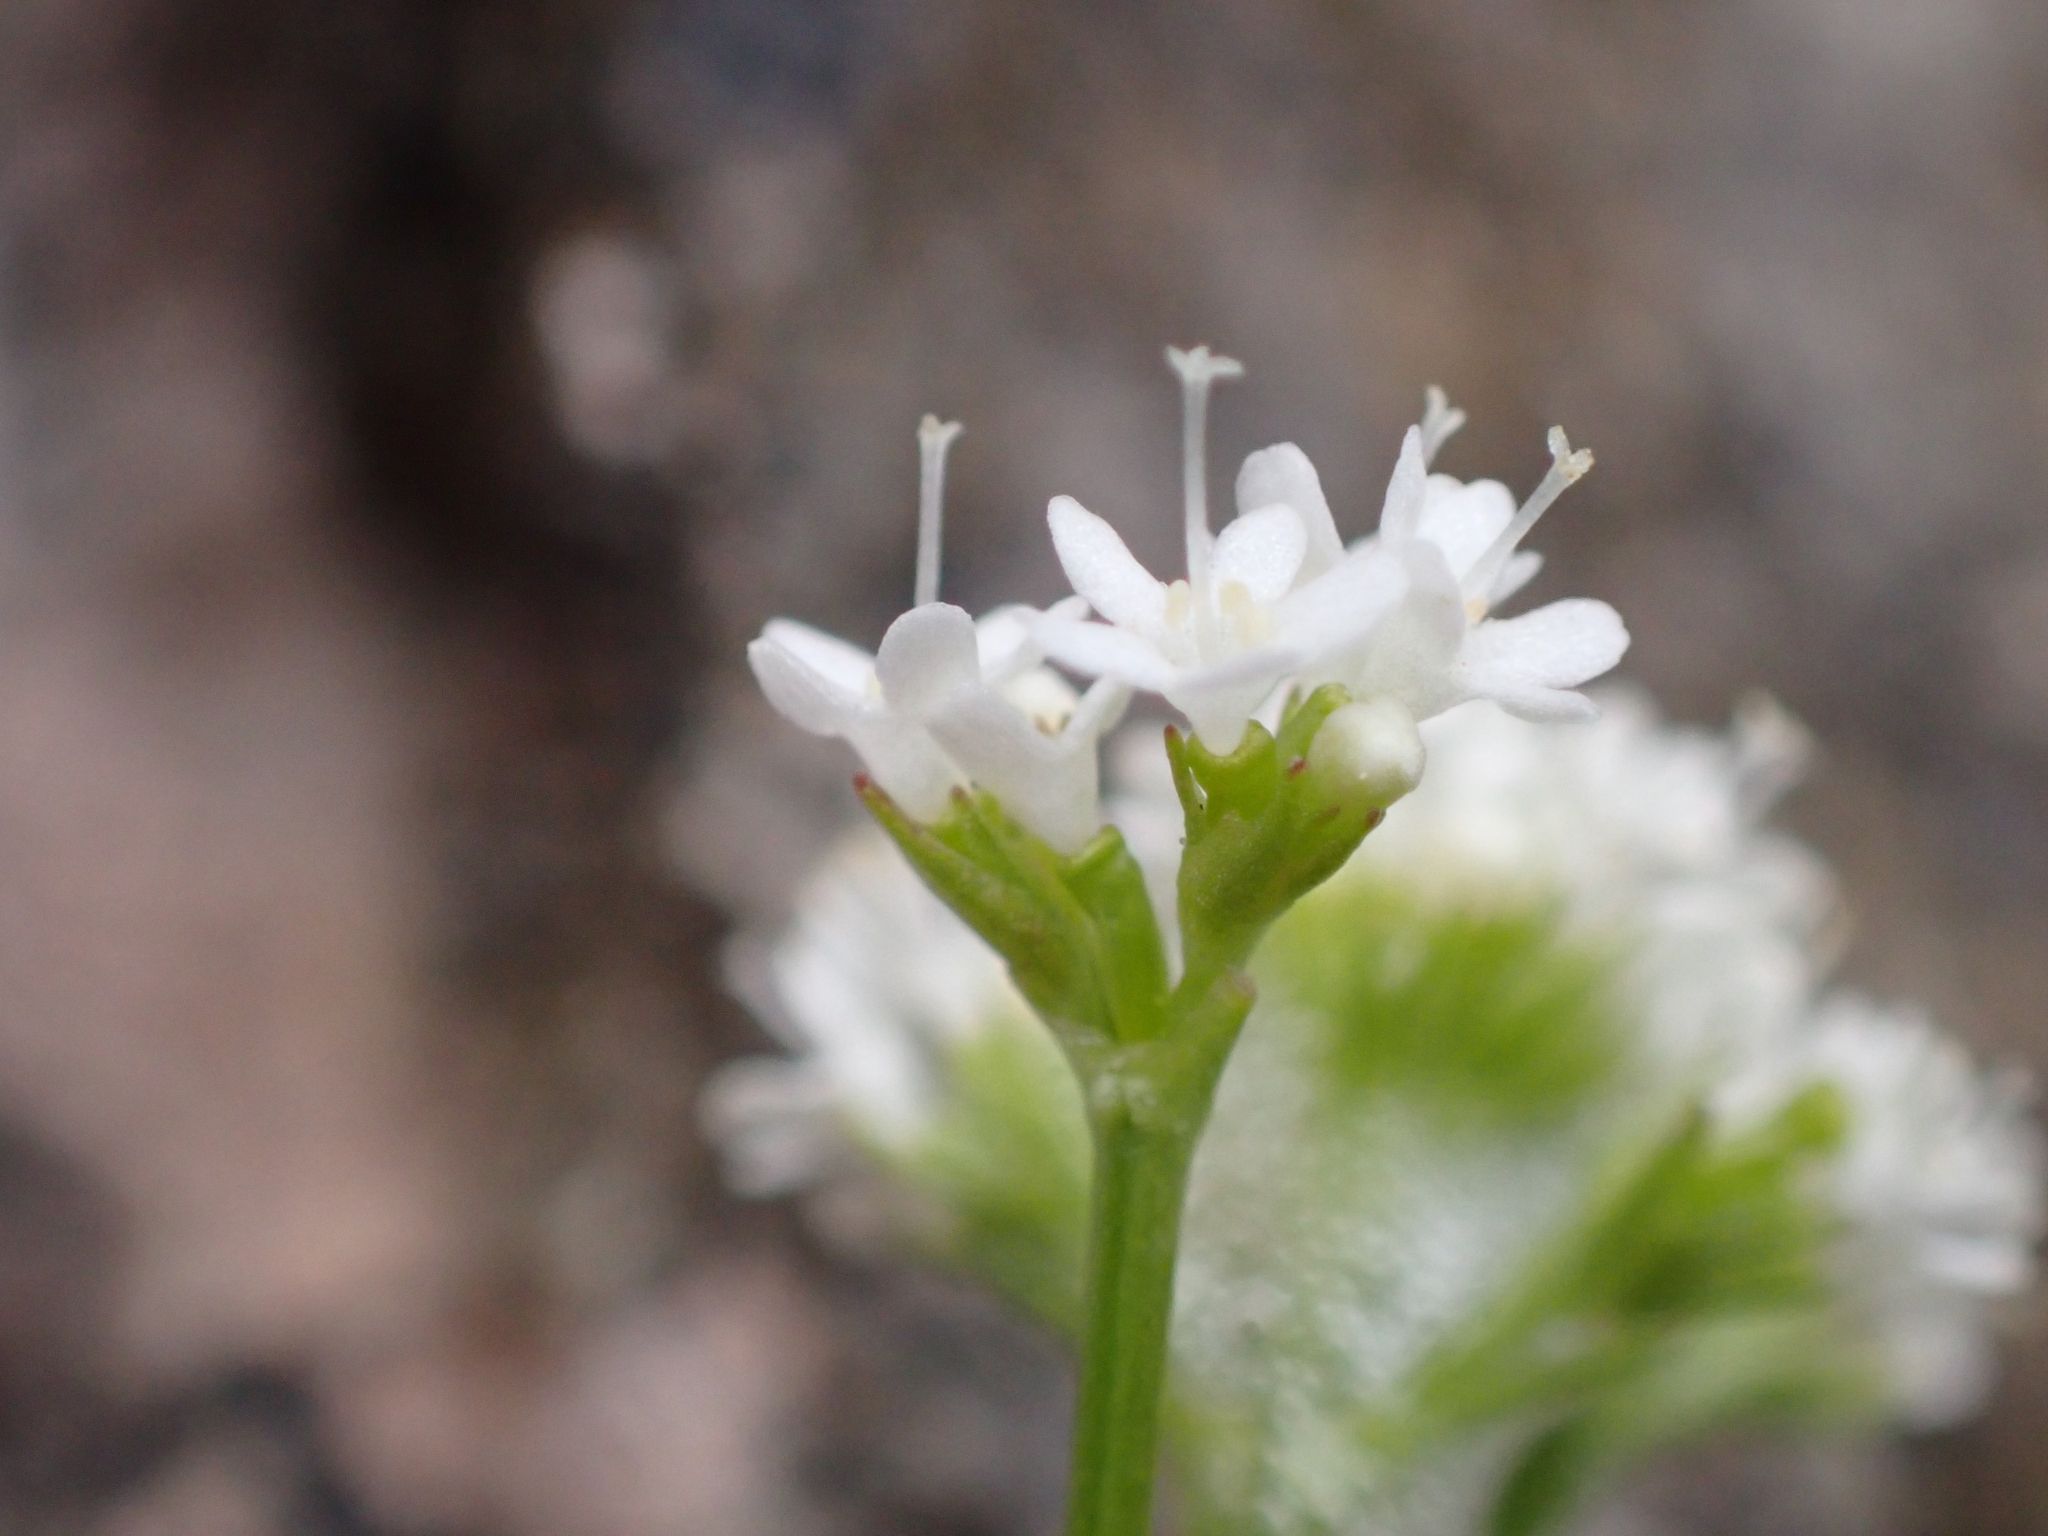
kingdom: Plantae
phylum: Tracheophyta
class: Magnoliopsida
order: Dipsacales
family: Caprifoliaceae
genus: Valeriana
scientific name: Valeriana saxatilis
